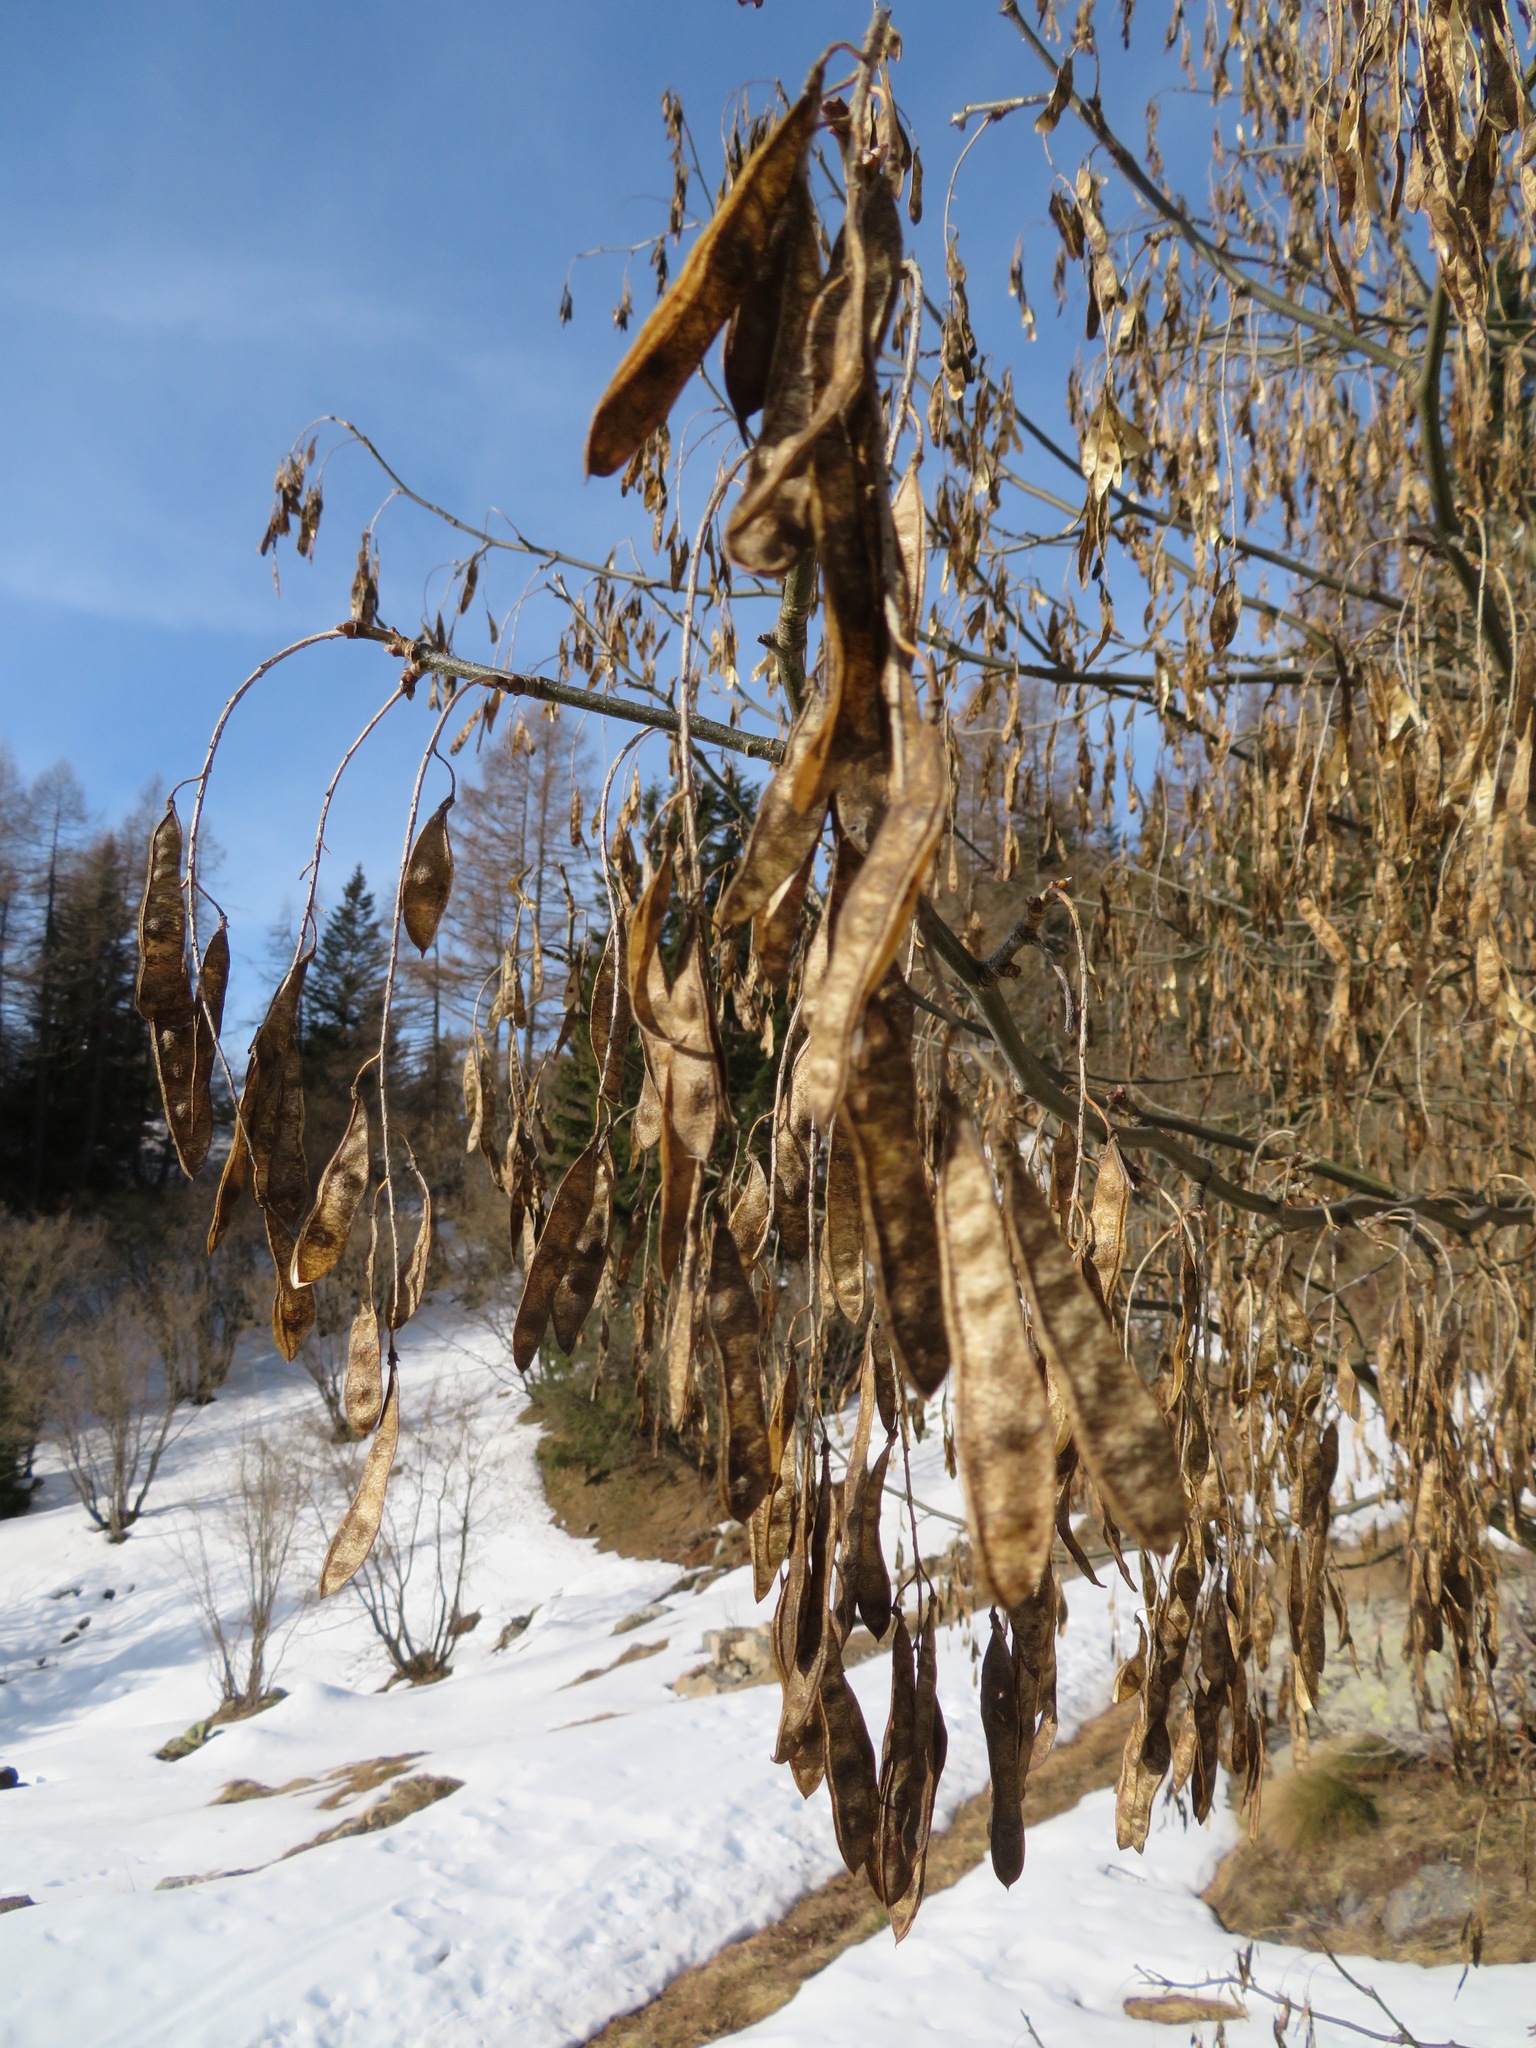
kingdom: Plantae
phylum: Tracheophyta
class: Magnoliopsida
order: Fabales
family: Fabaceae
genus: Laburnum
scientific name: Laburnum alpinum
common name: Scottish laburnum
